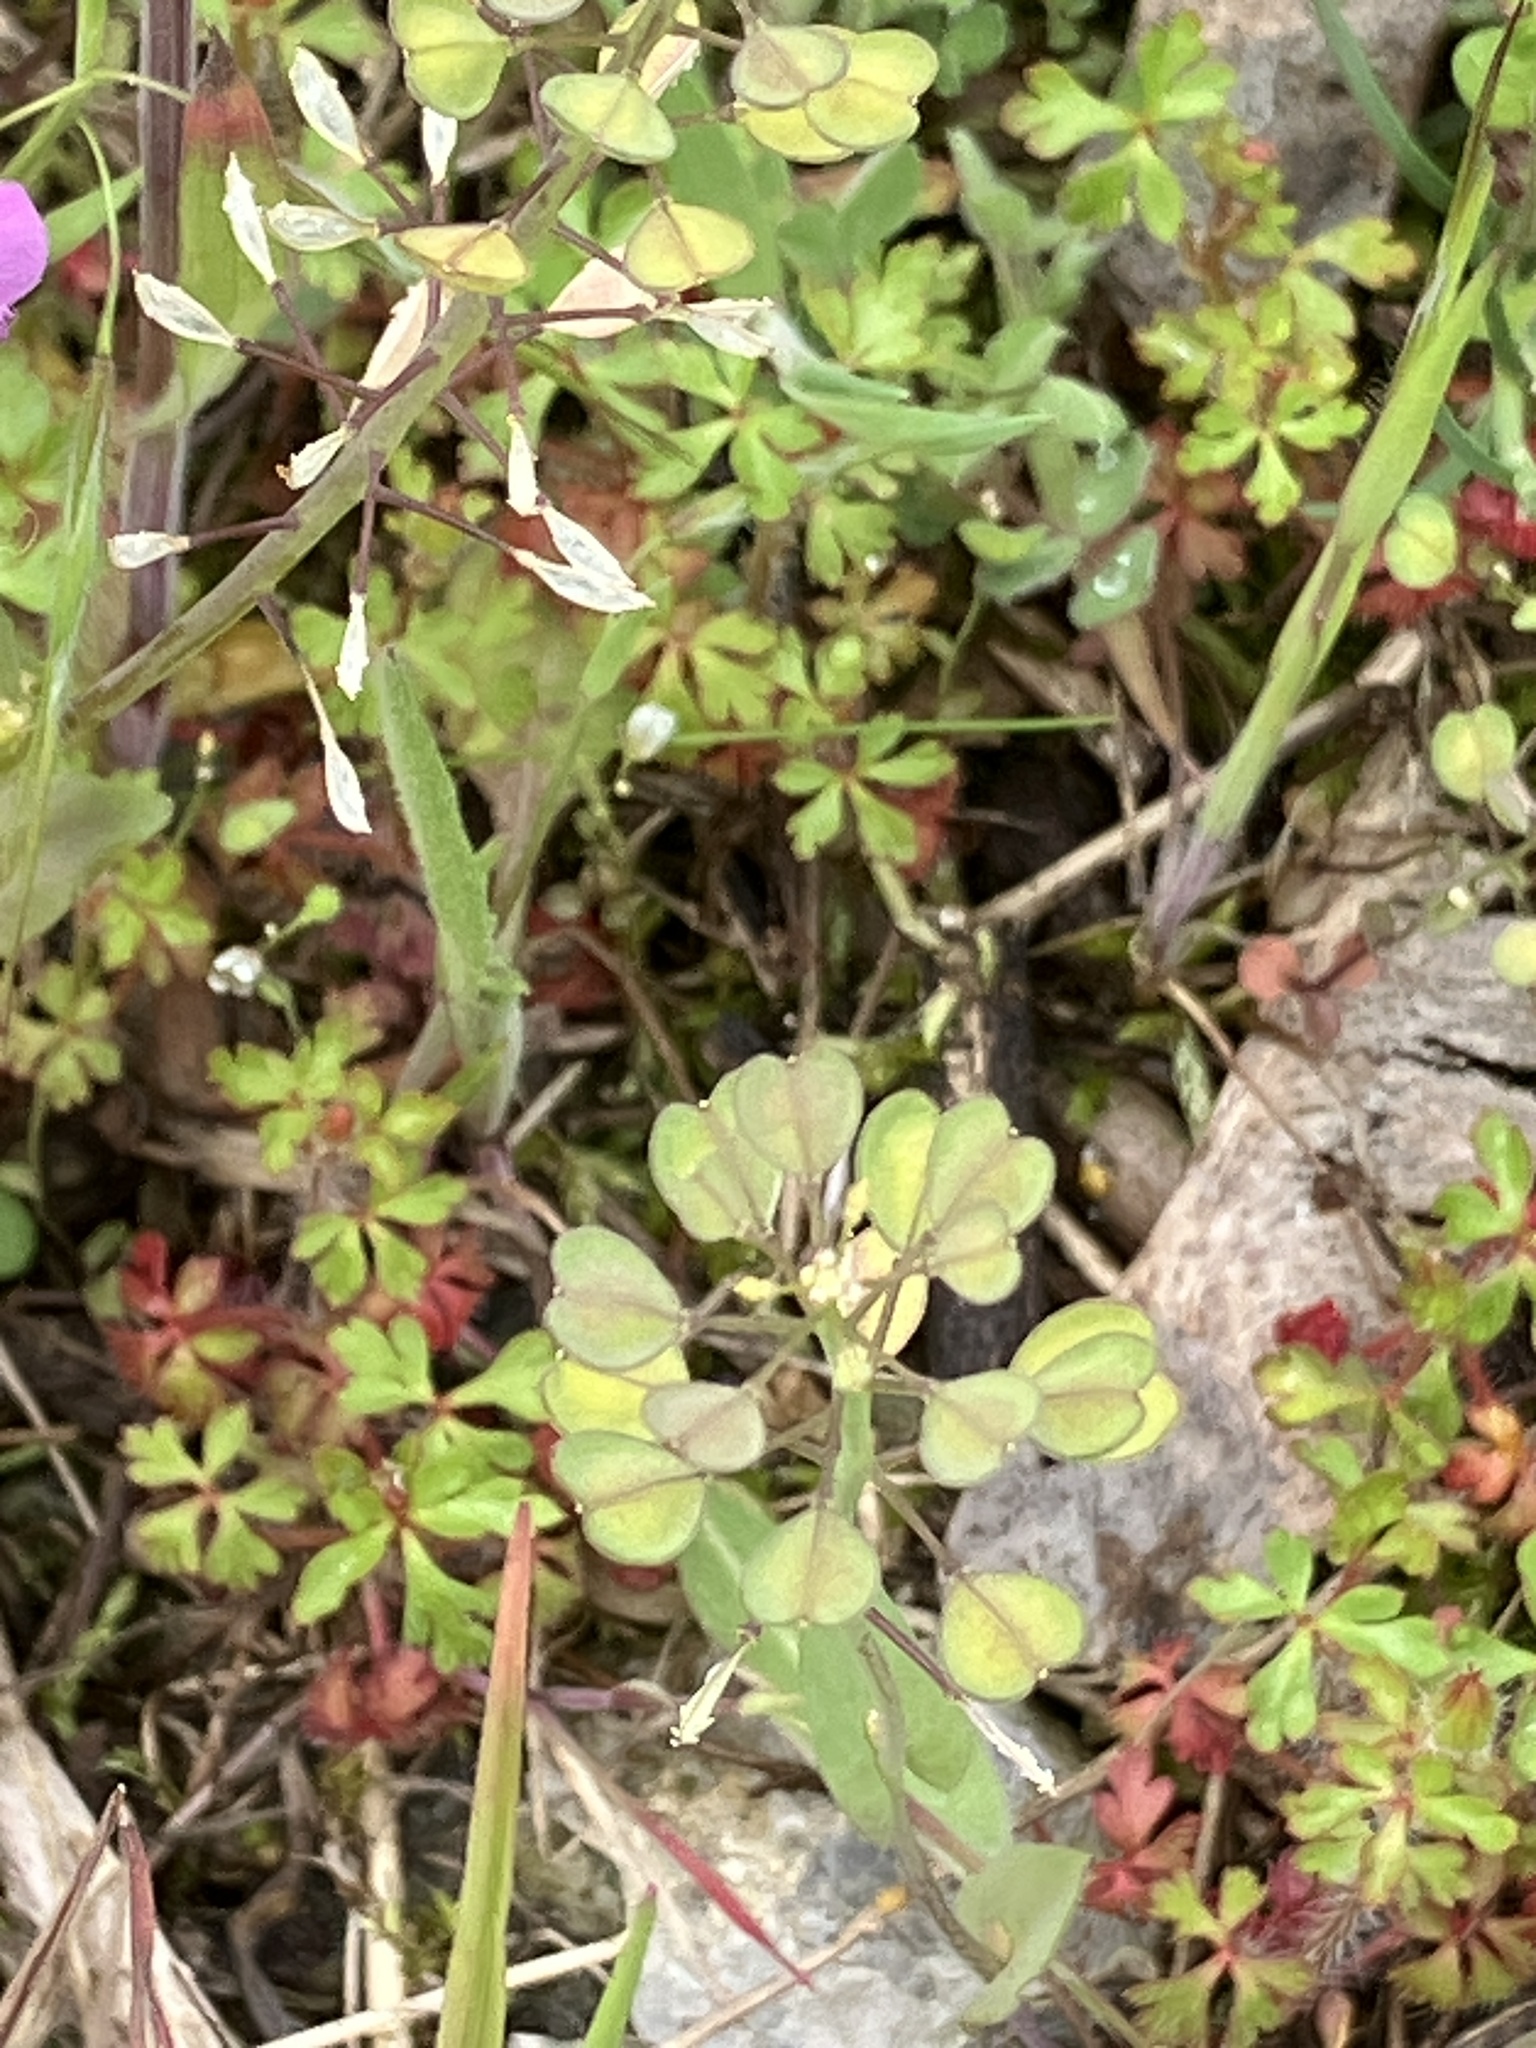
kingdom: Plantae
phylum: Tracheophyta
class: Magnoliopsida
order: Brassicales
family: Brassicaceae
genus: Noccaea
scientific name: Noccaea perfoliata
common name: Perfoliate pennycress
